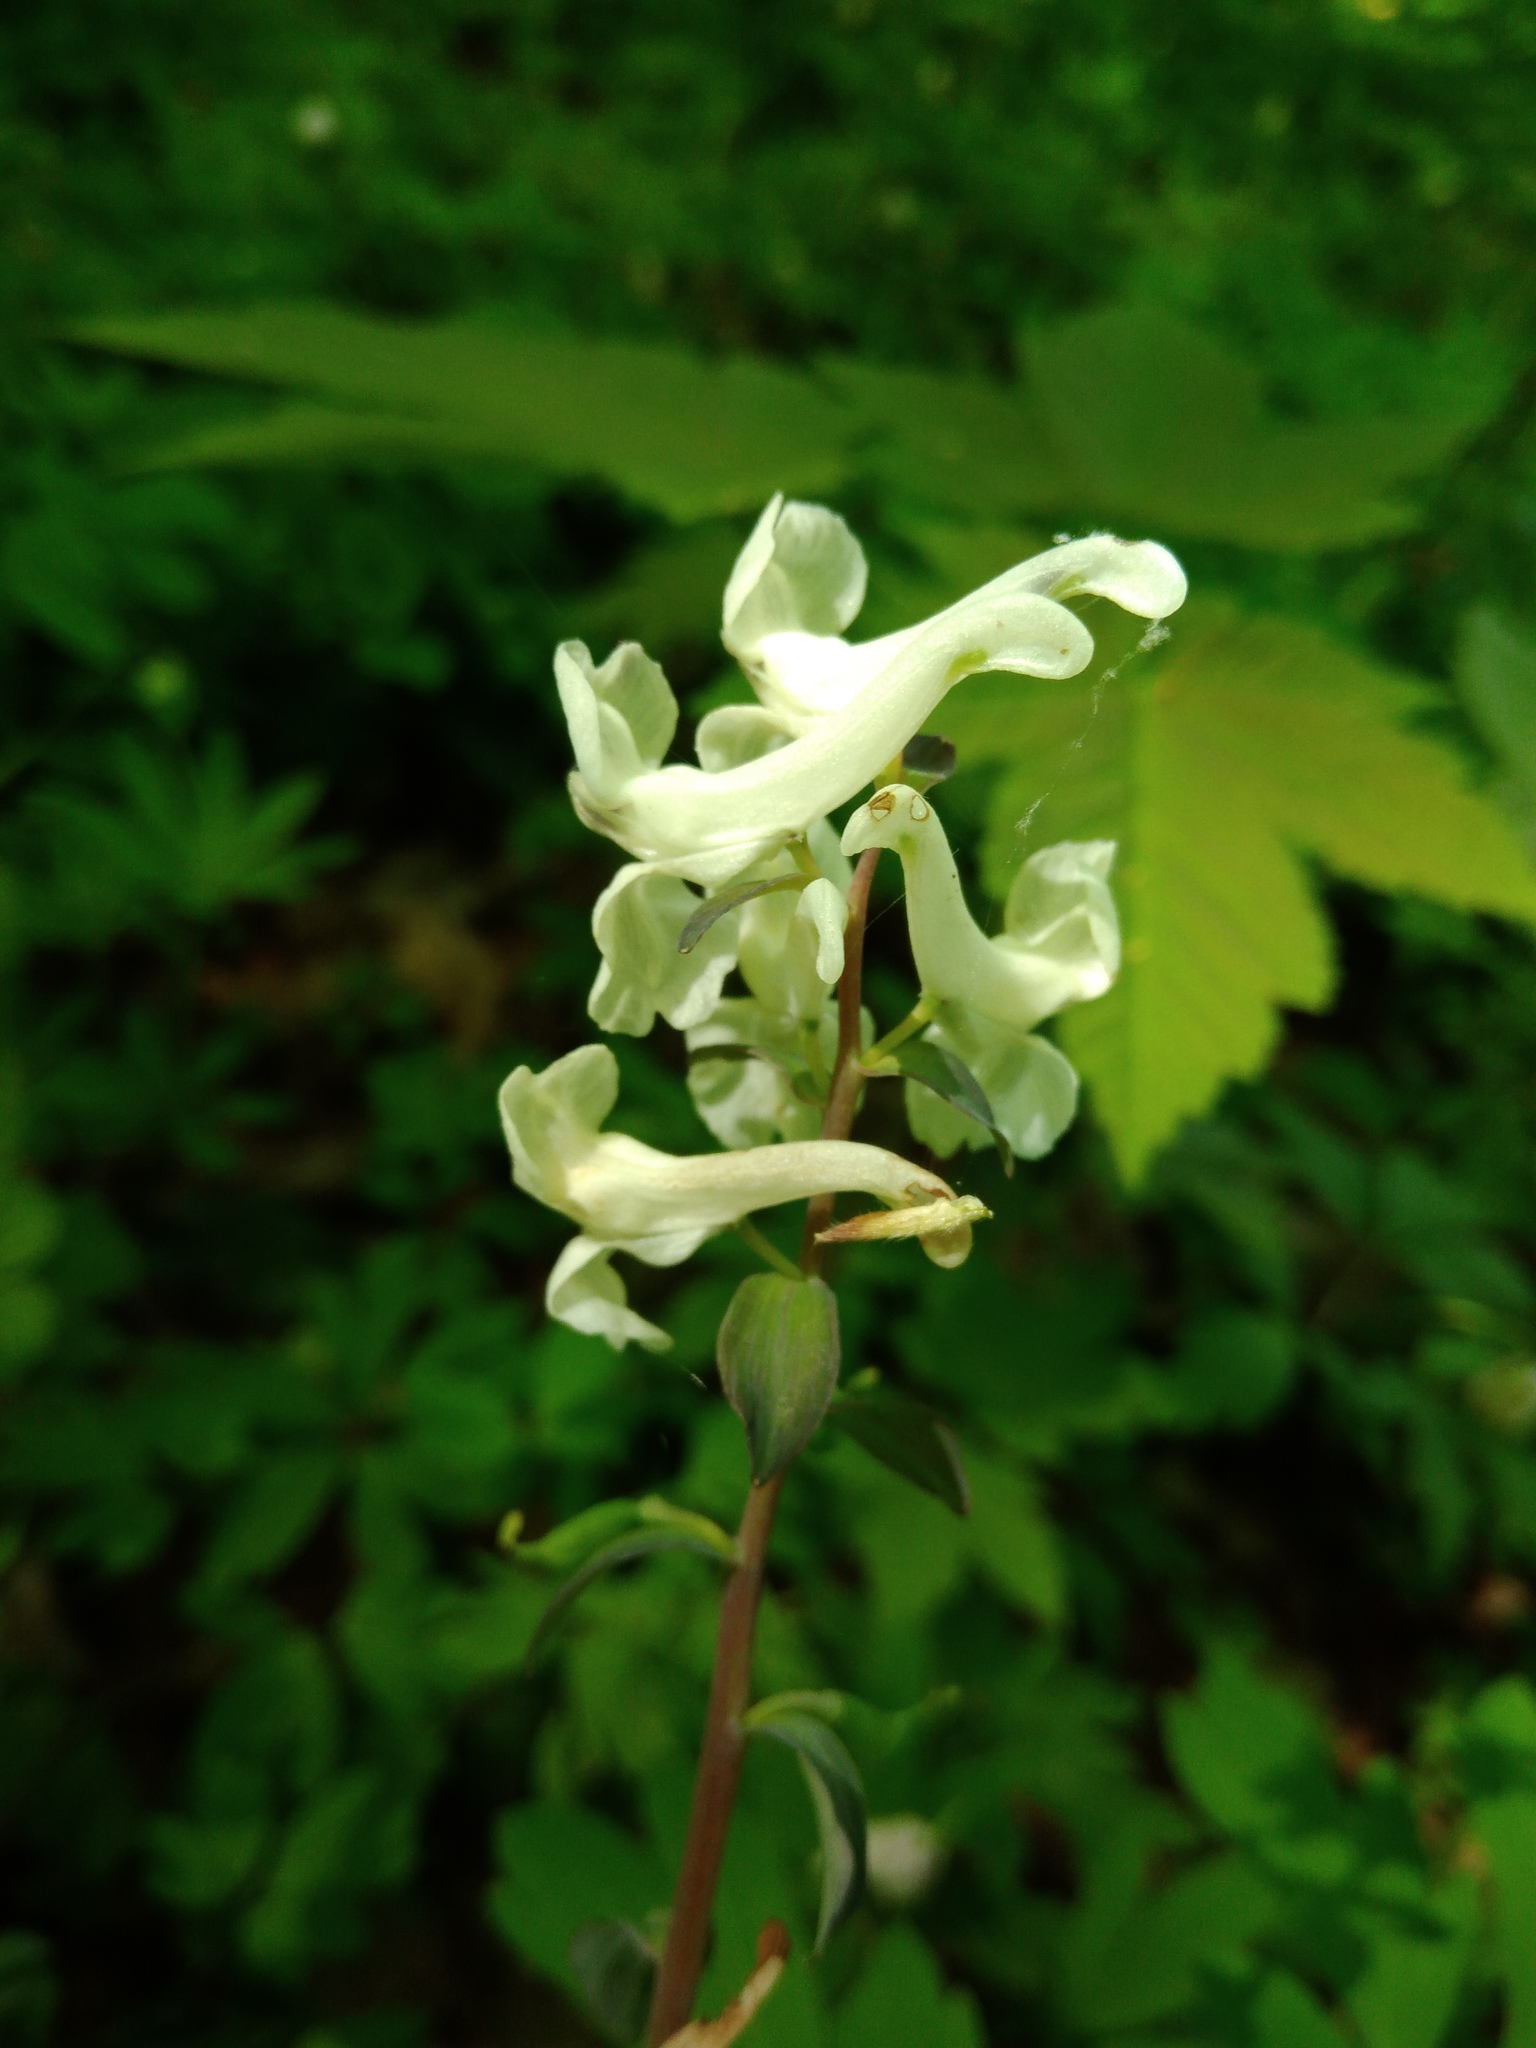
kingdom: Plantae
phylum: Tracheophyta
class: Magnoliopsida
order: Ranunculales
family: Papaveraceae
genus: Corydalis
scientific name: Corydalis cava
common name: Hollowroot
